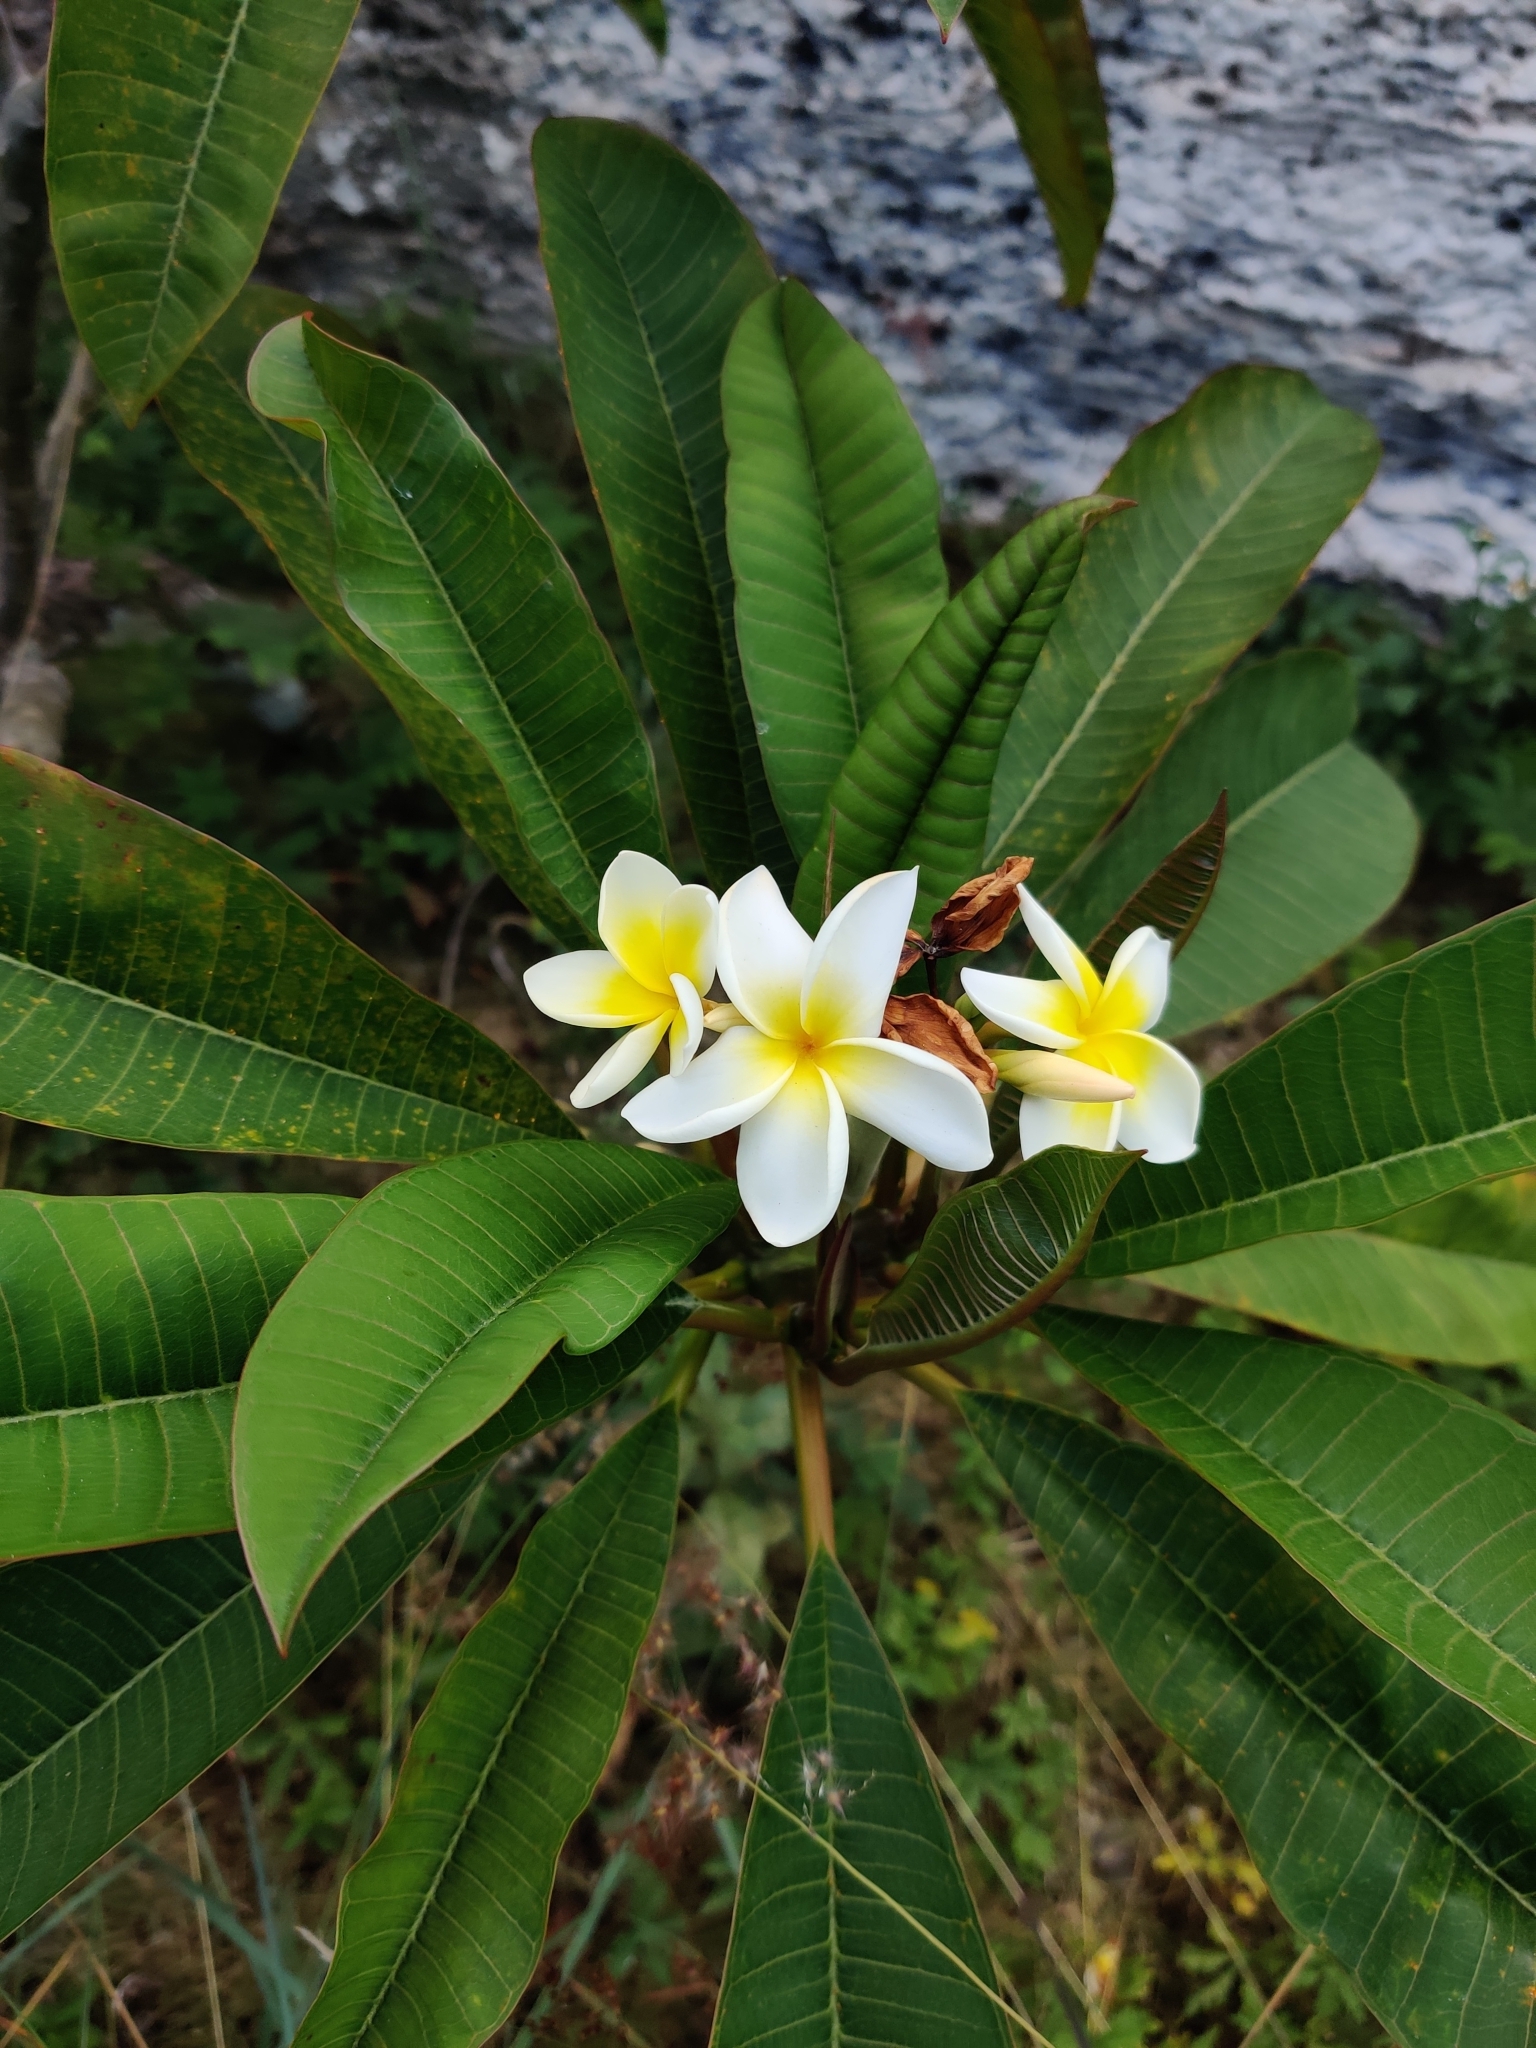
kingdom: Plantae
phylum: Tracheophyta
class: Magnoliopsida
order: Gentianales
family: Apocynaceae
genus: Plumeria
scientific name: Plumeria rubra
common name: Pagoda-tree
